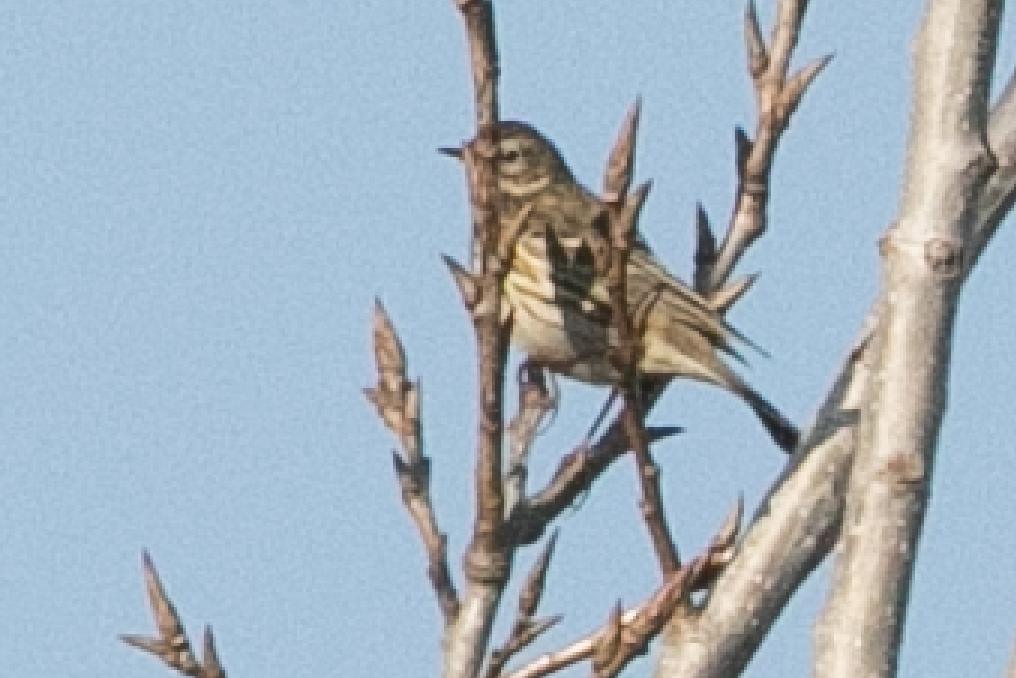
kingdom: Animalia
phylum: Chordata
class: Aves
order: Passeriformes
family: Motacillidae
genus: Anthus
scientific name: Anthus pratensis
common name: Meadow pipit
